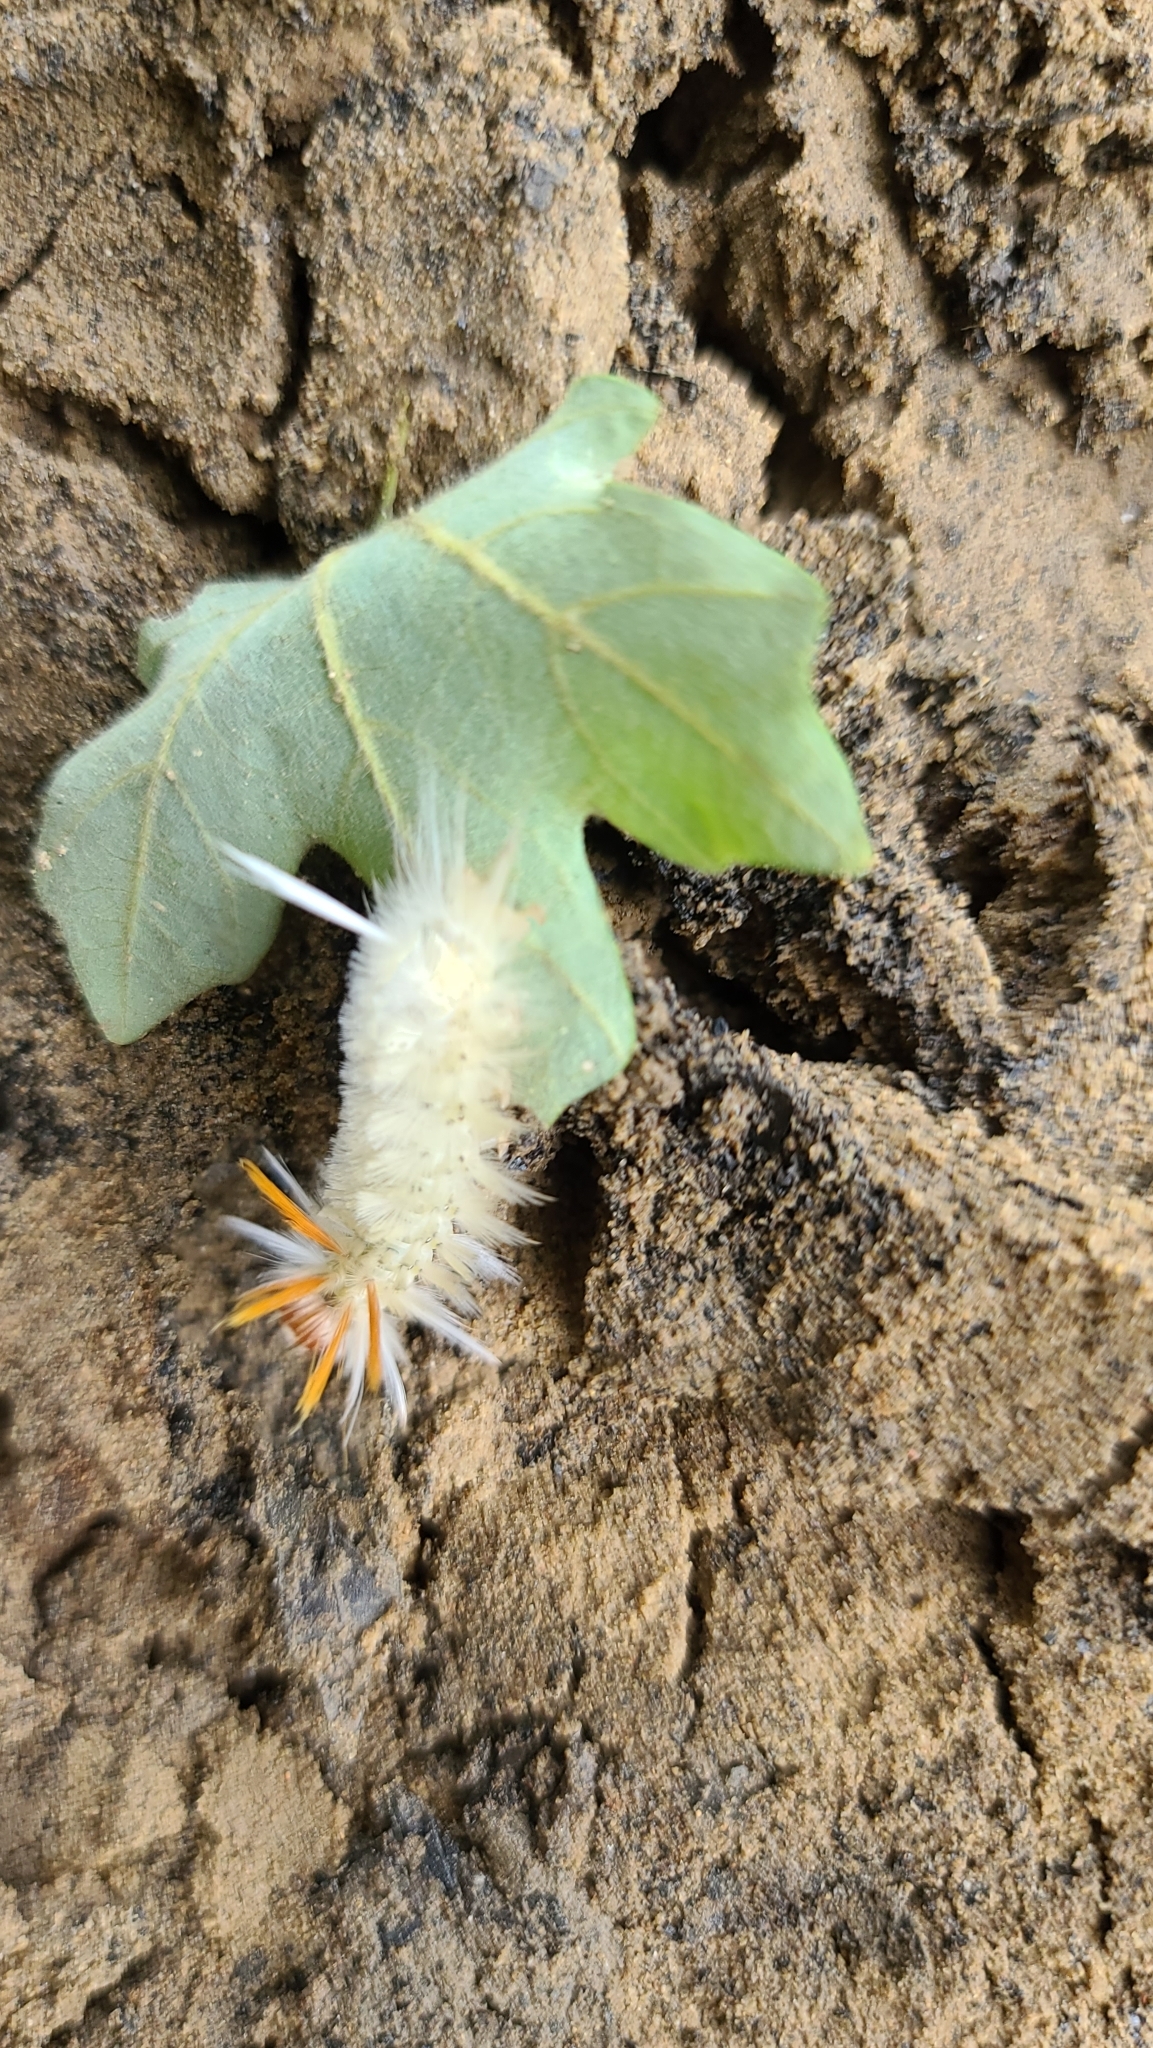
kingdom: Animalia
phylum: Arthropoda
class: Insecta
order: Lepidoptera
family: Erebidae
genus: Halysidota
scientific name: Halysidota harrisii
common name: Sycamore tussock moth
